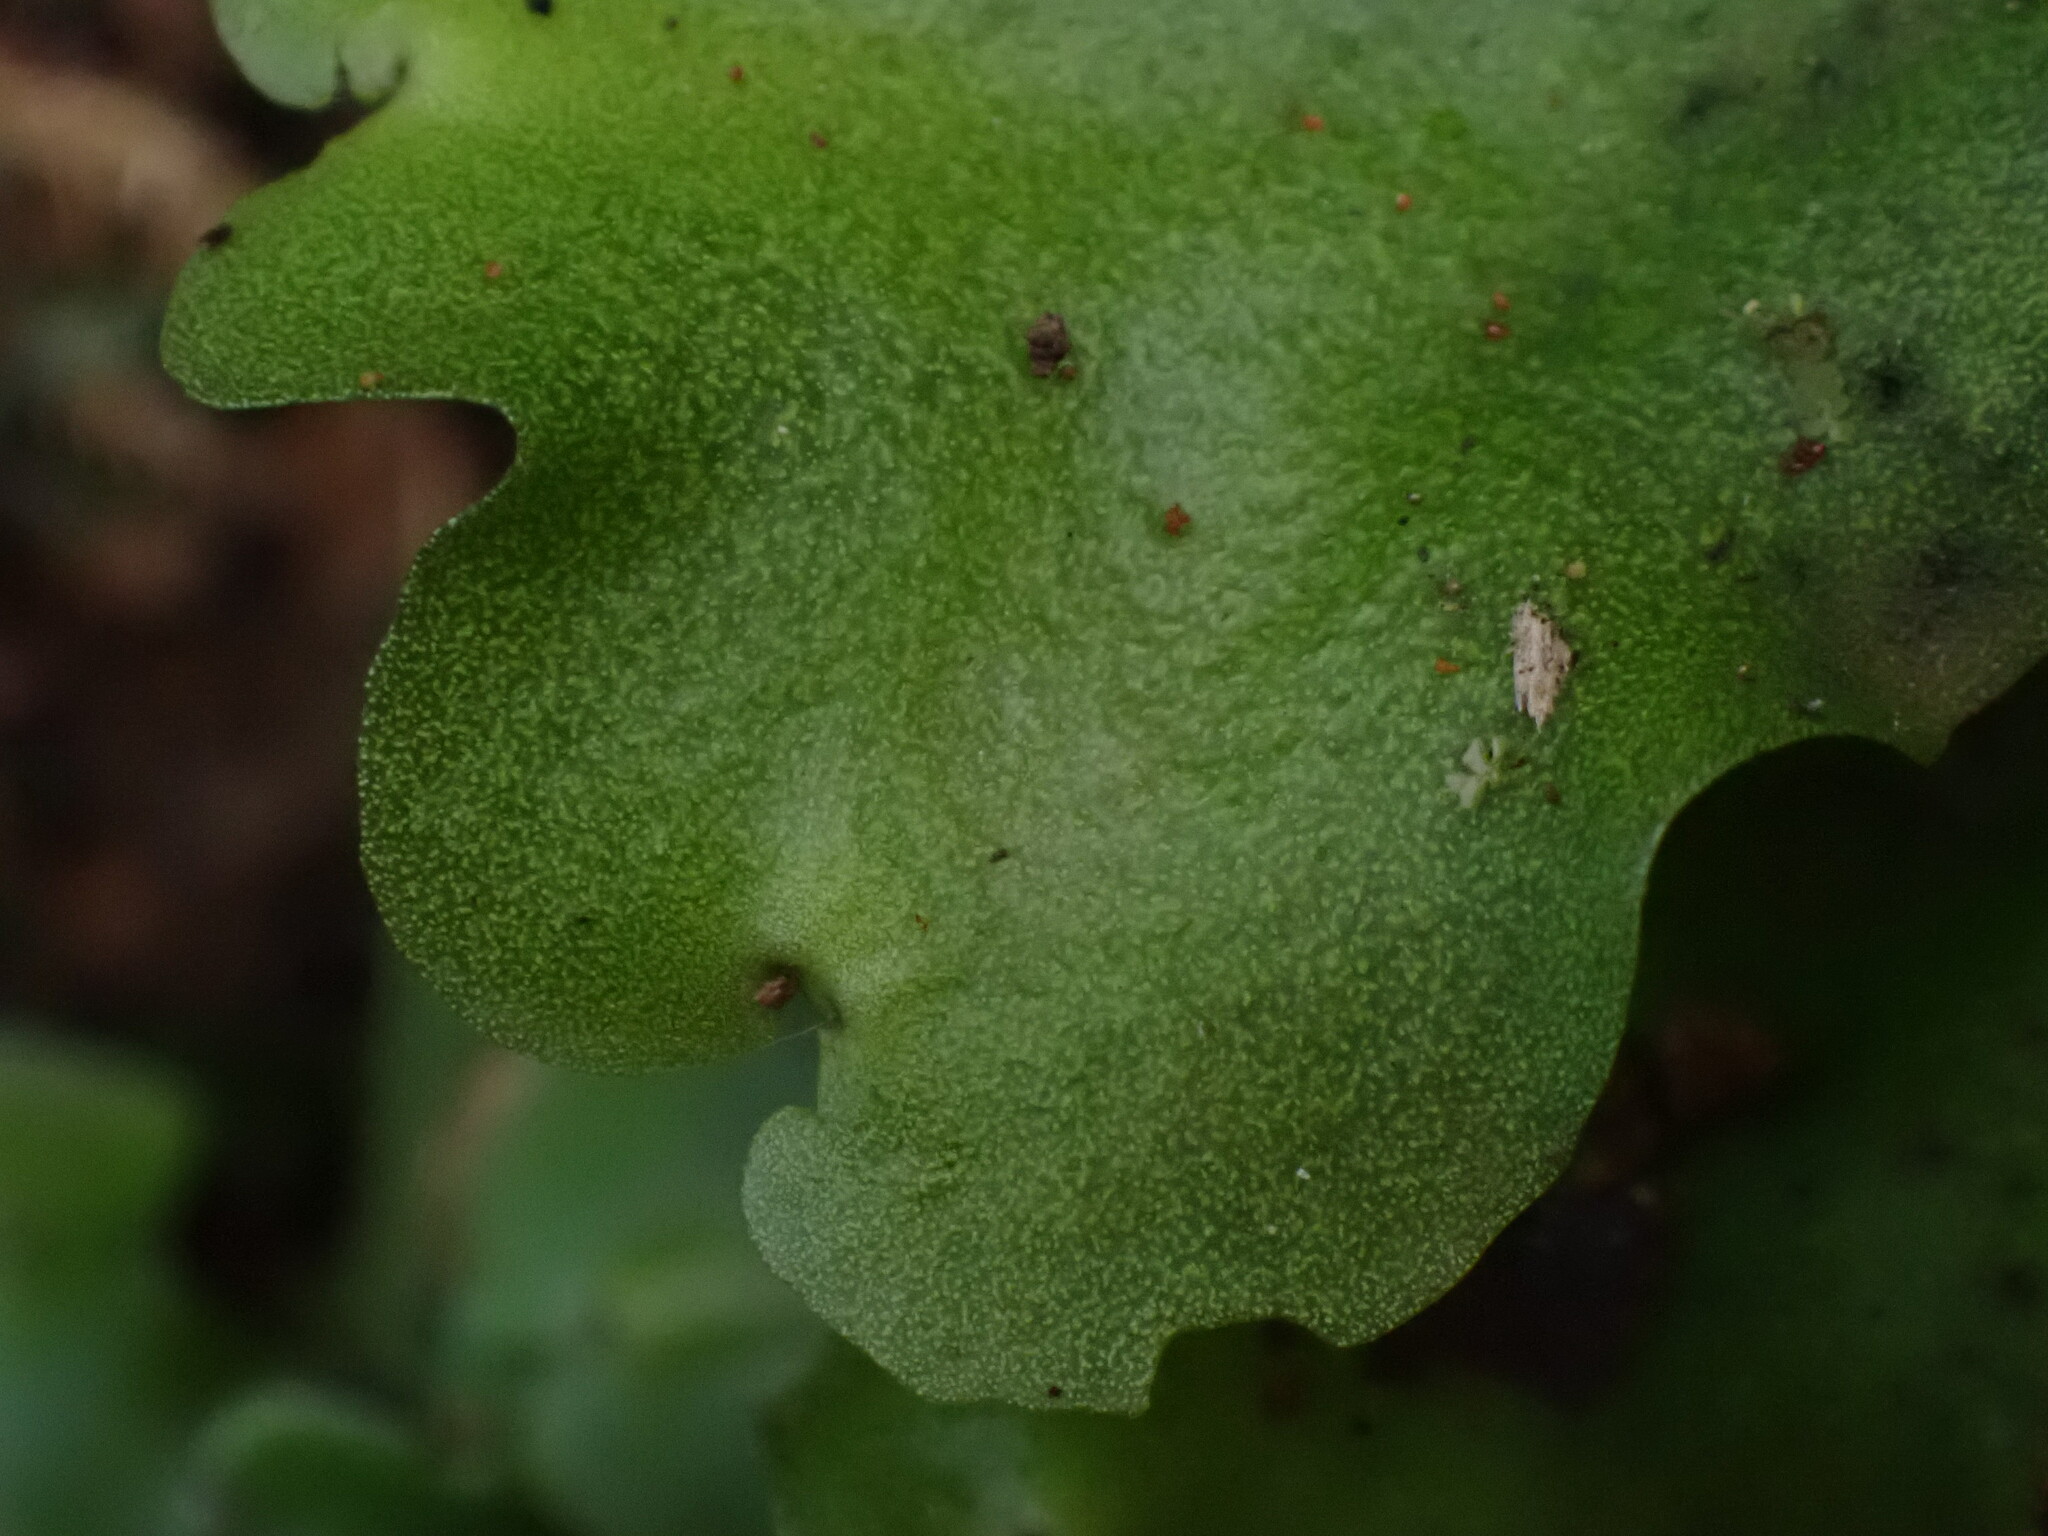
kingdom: Plantae
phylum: Marchantiophyta
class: Marchantiopsida
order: Marchantiales
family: Monocleaceae
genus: Monoclea
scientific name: Monoclea gottschei
